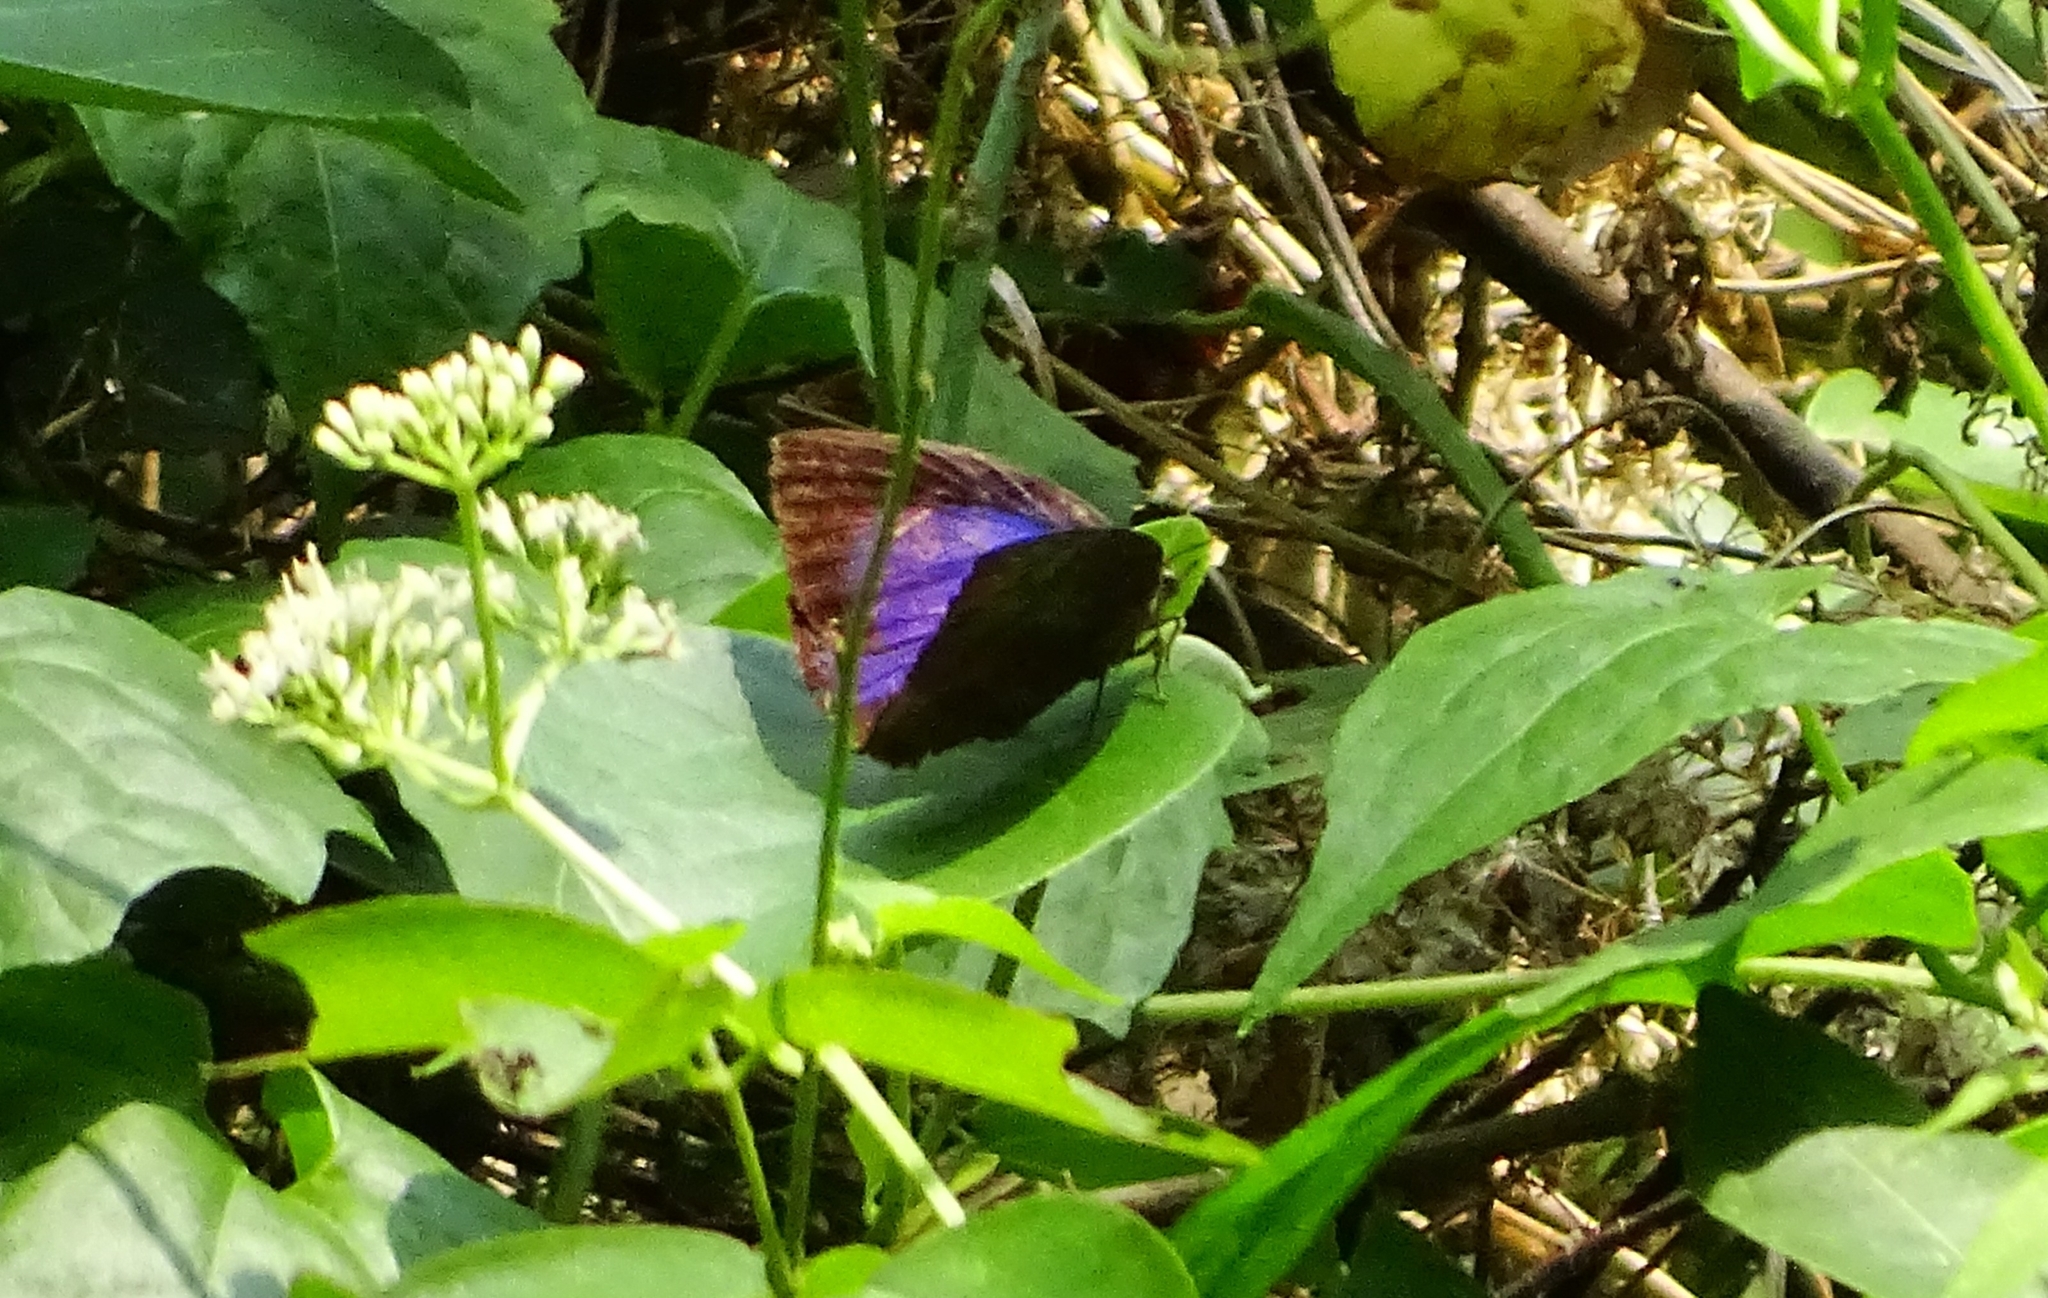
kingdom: Animalia
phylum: Arthropoda
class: Insecta
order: Lepidoptera
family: Lycaenidae
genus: Arhopala
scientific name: Arhopala centaurus
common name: Dull oak-blue
